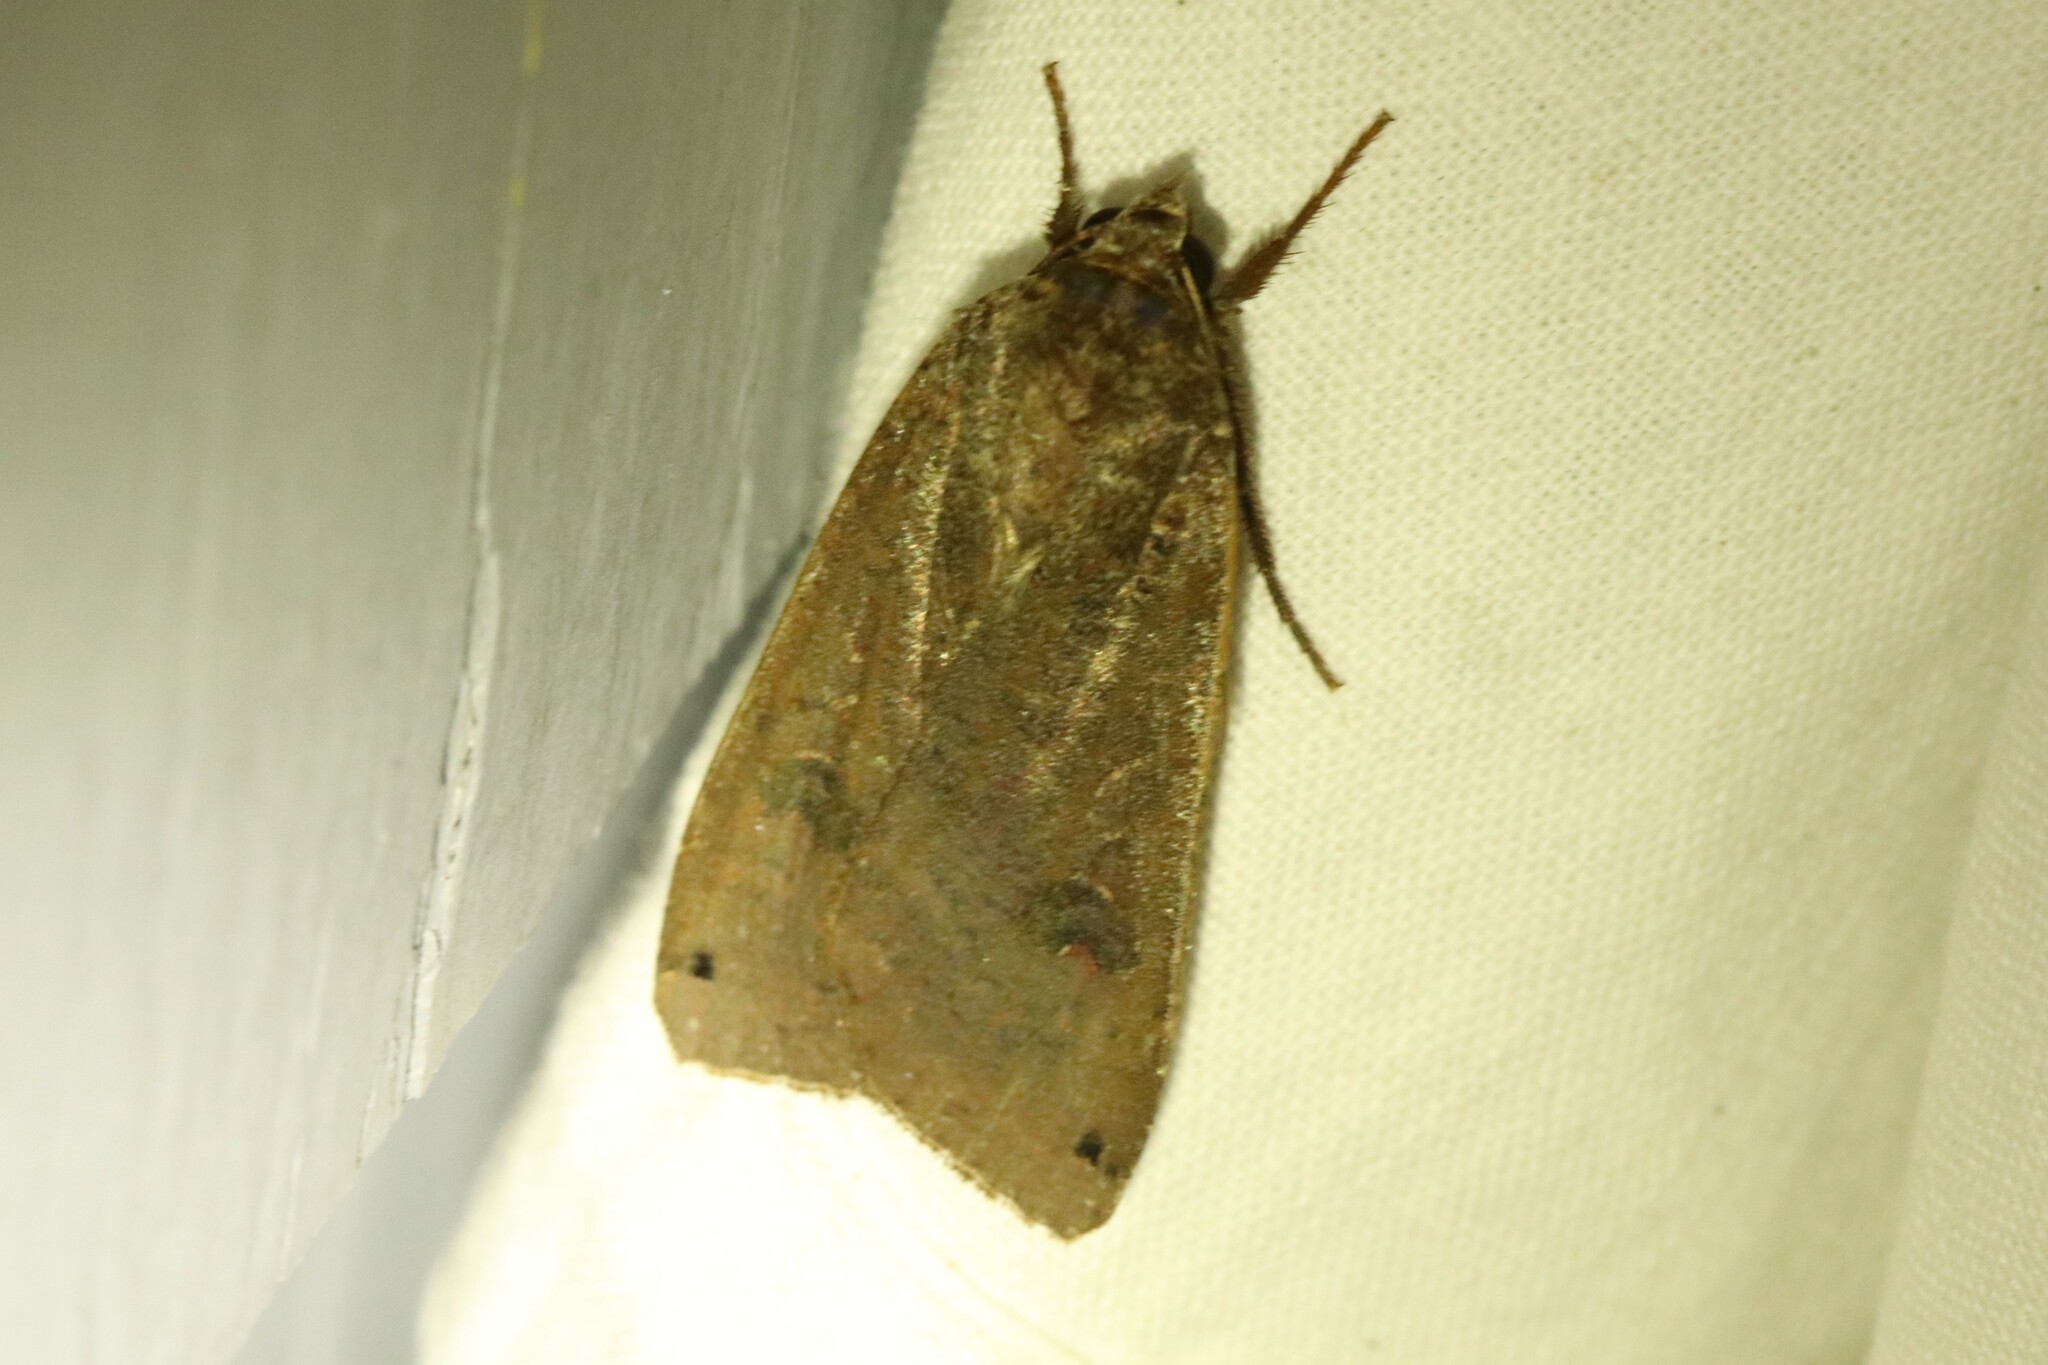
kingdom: Animalia
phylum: Arthropoda
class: Insecta
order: Lepidoptera
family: Noctuidae
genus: Noctua
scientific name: Noctua pronuba
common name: Large yellow underwing
